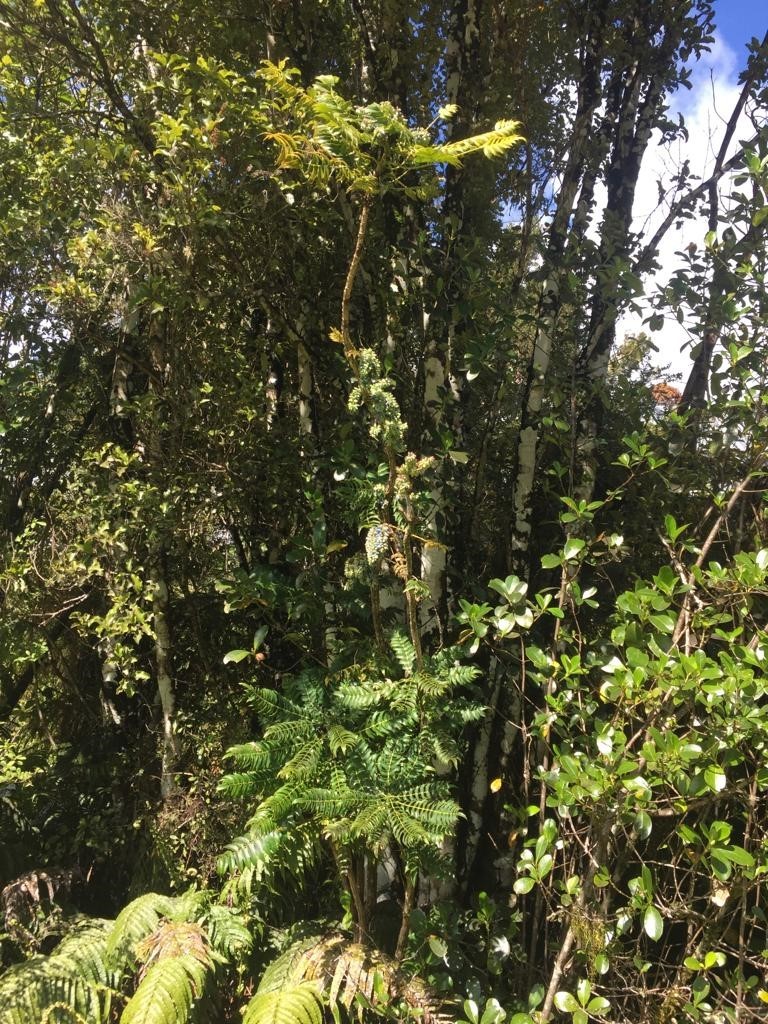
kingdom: Plantae
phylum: Tracheophyta
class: Magnoliopsida
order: Ranunculales
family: Berberidaceae
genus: Mahonia
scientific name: Mahonia oiwakensis
